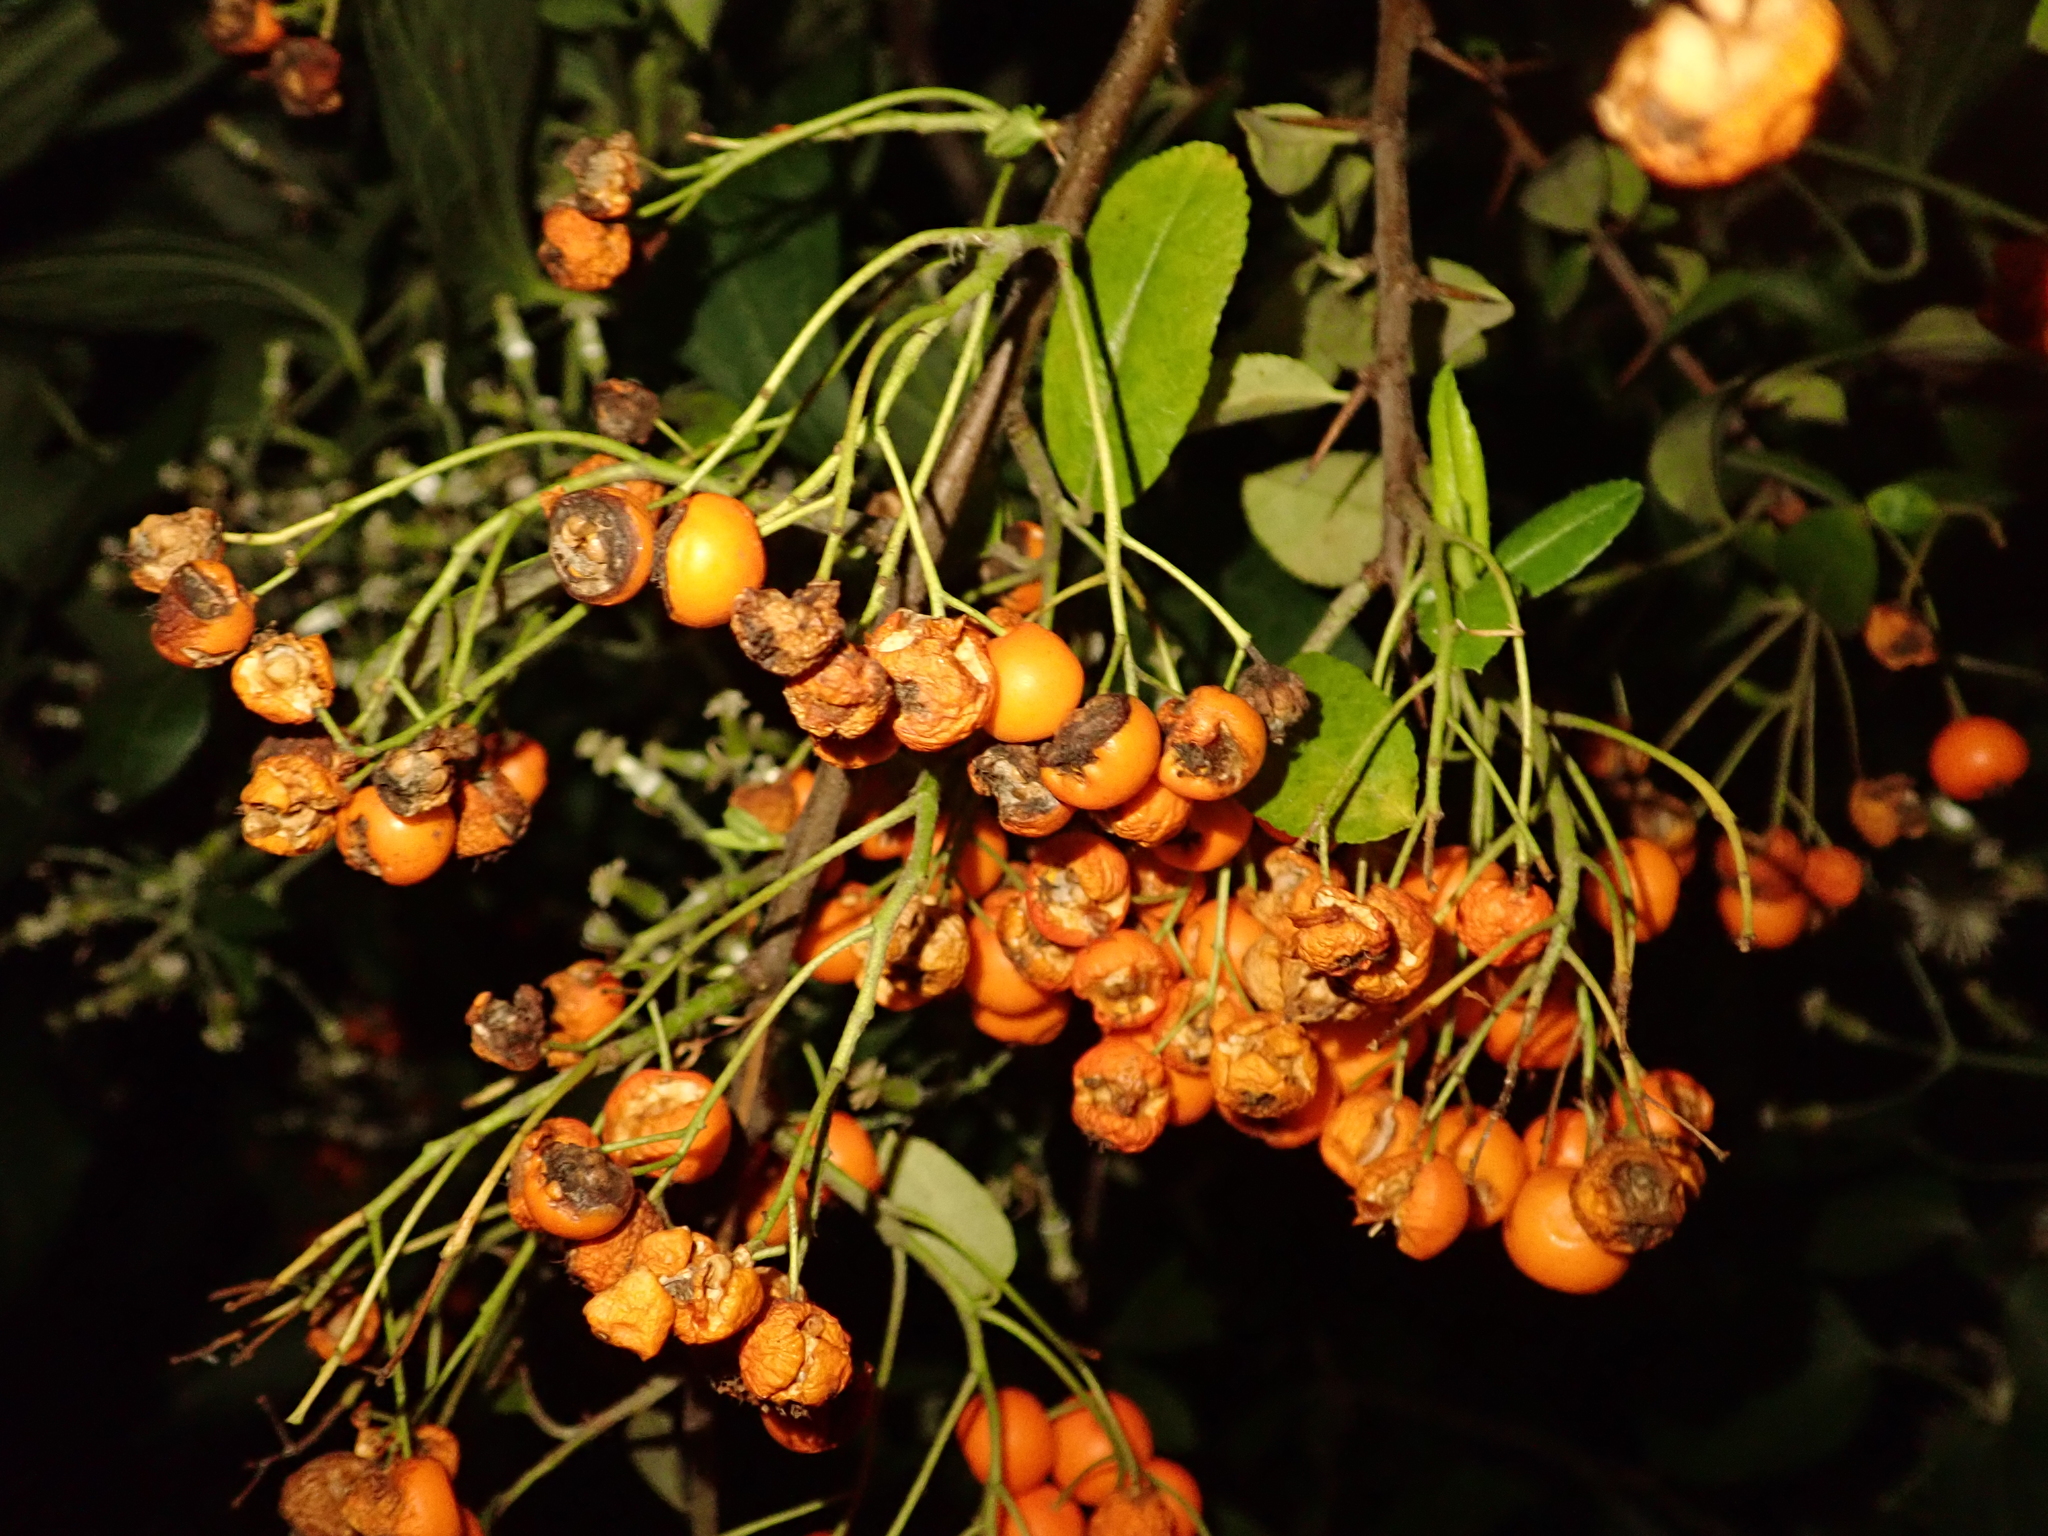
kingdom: Plantae
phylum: Tracheophyta
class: Magnoliopsida
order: Rosales
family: Rosaceae
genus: Pyracantha
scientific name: Pyracantha coccinea
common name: Firethorn
